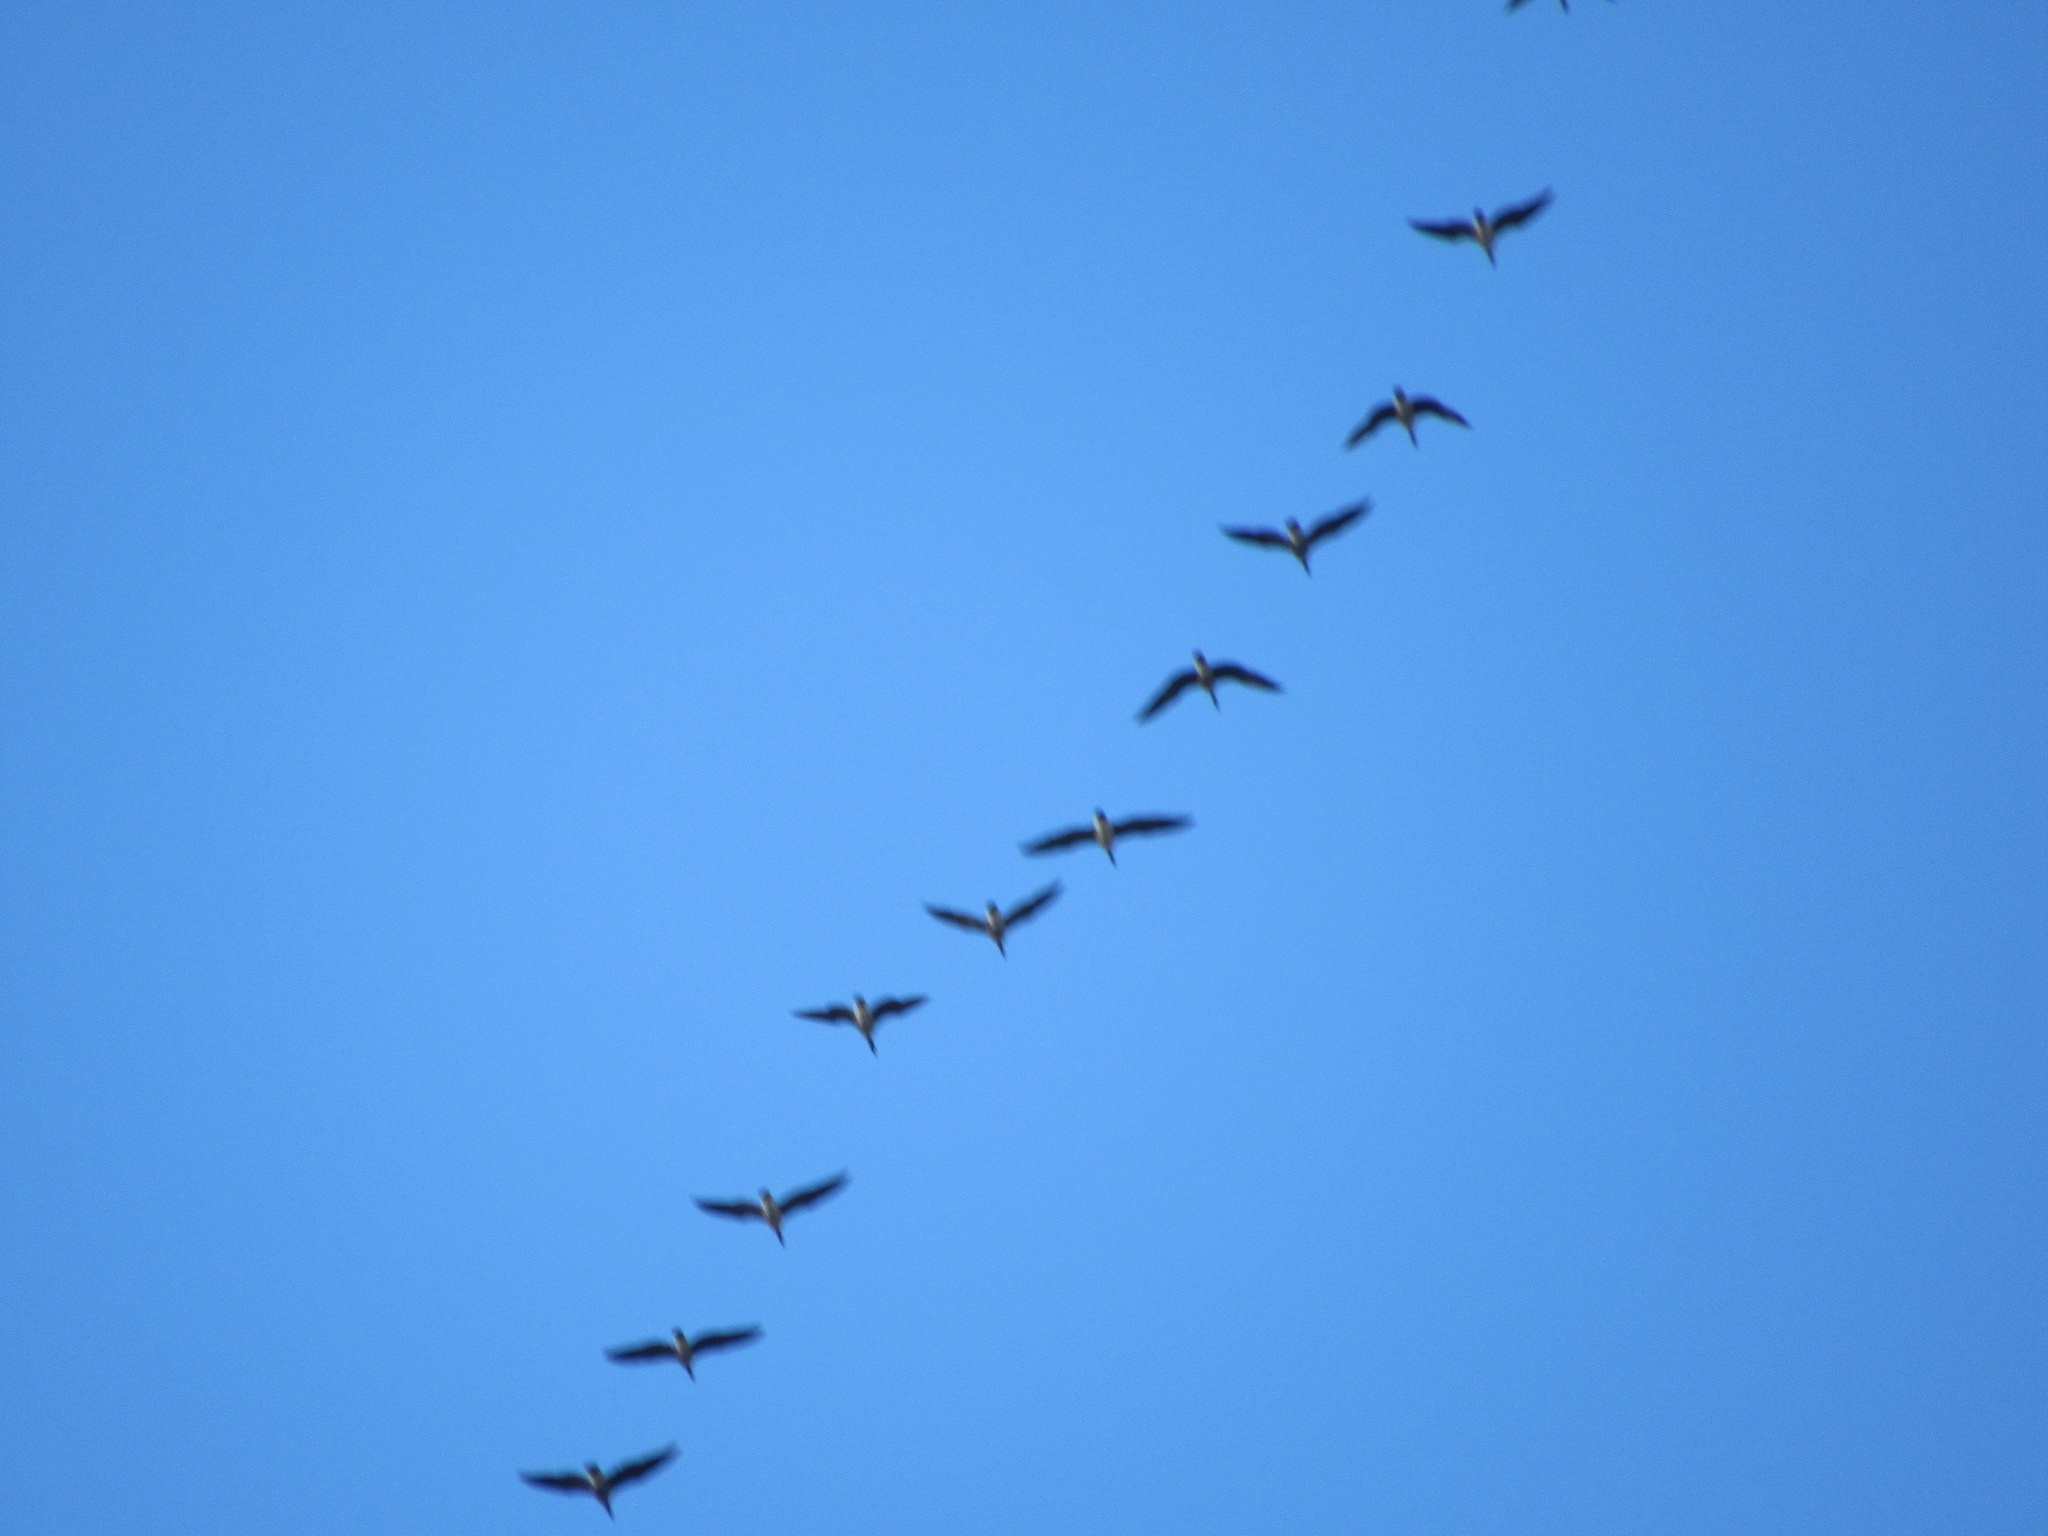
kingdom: Animalia
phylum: Chordata
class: Aves
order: Anseriformes
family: Anatidae
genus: Branta
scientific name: Branta canadensis
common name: Canada goose
